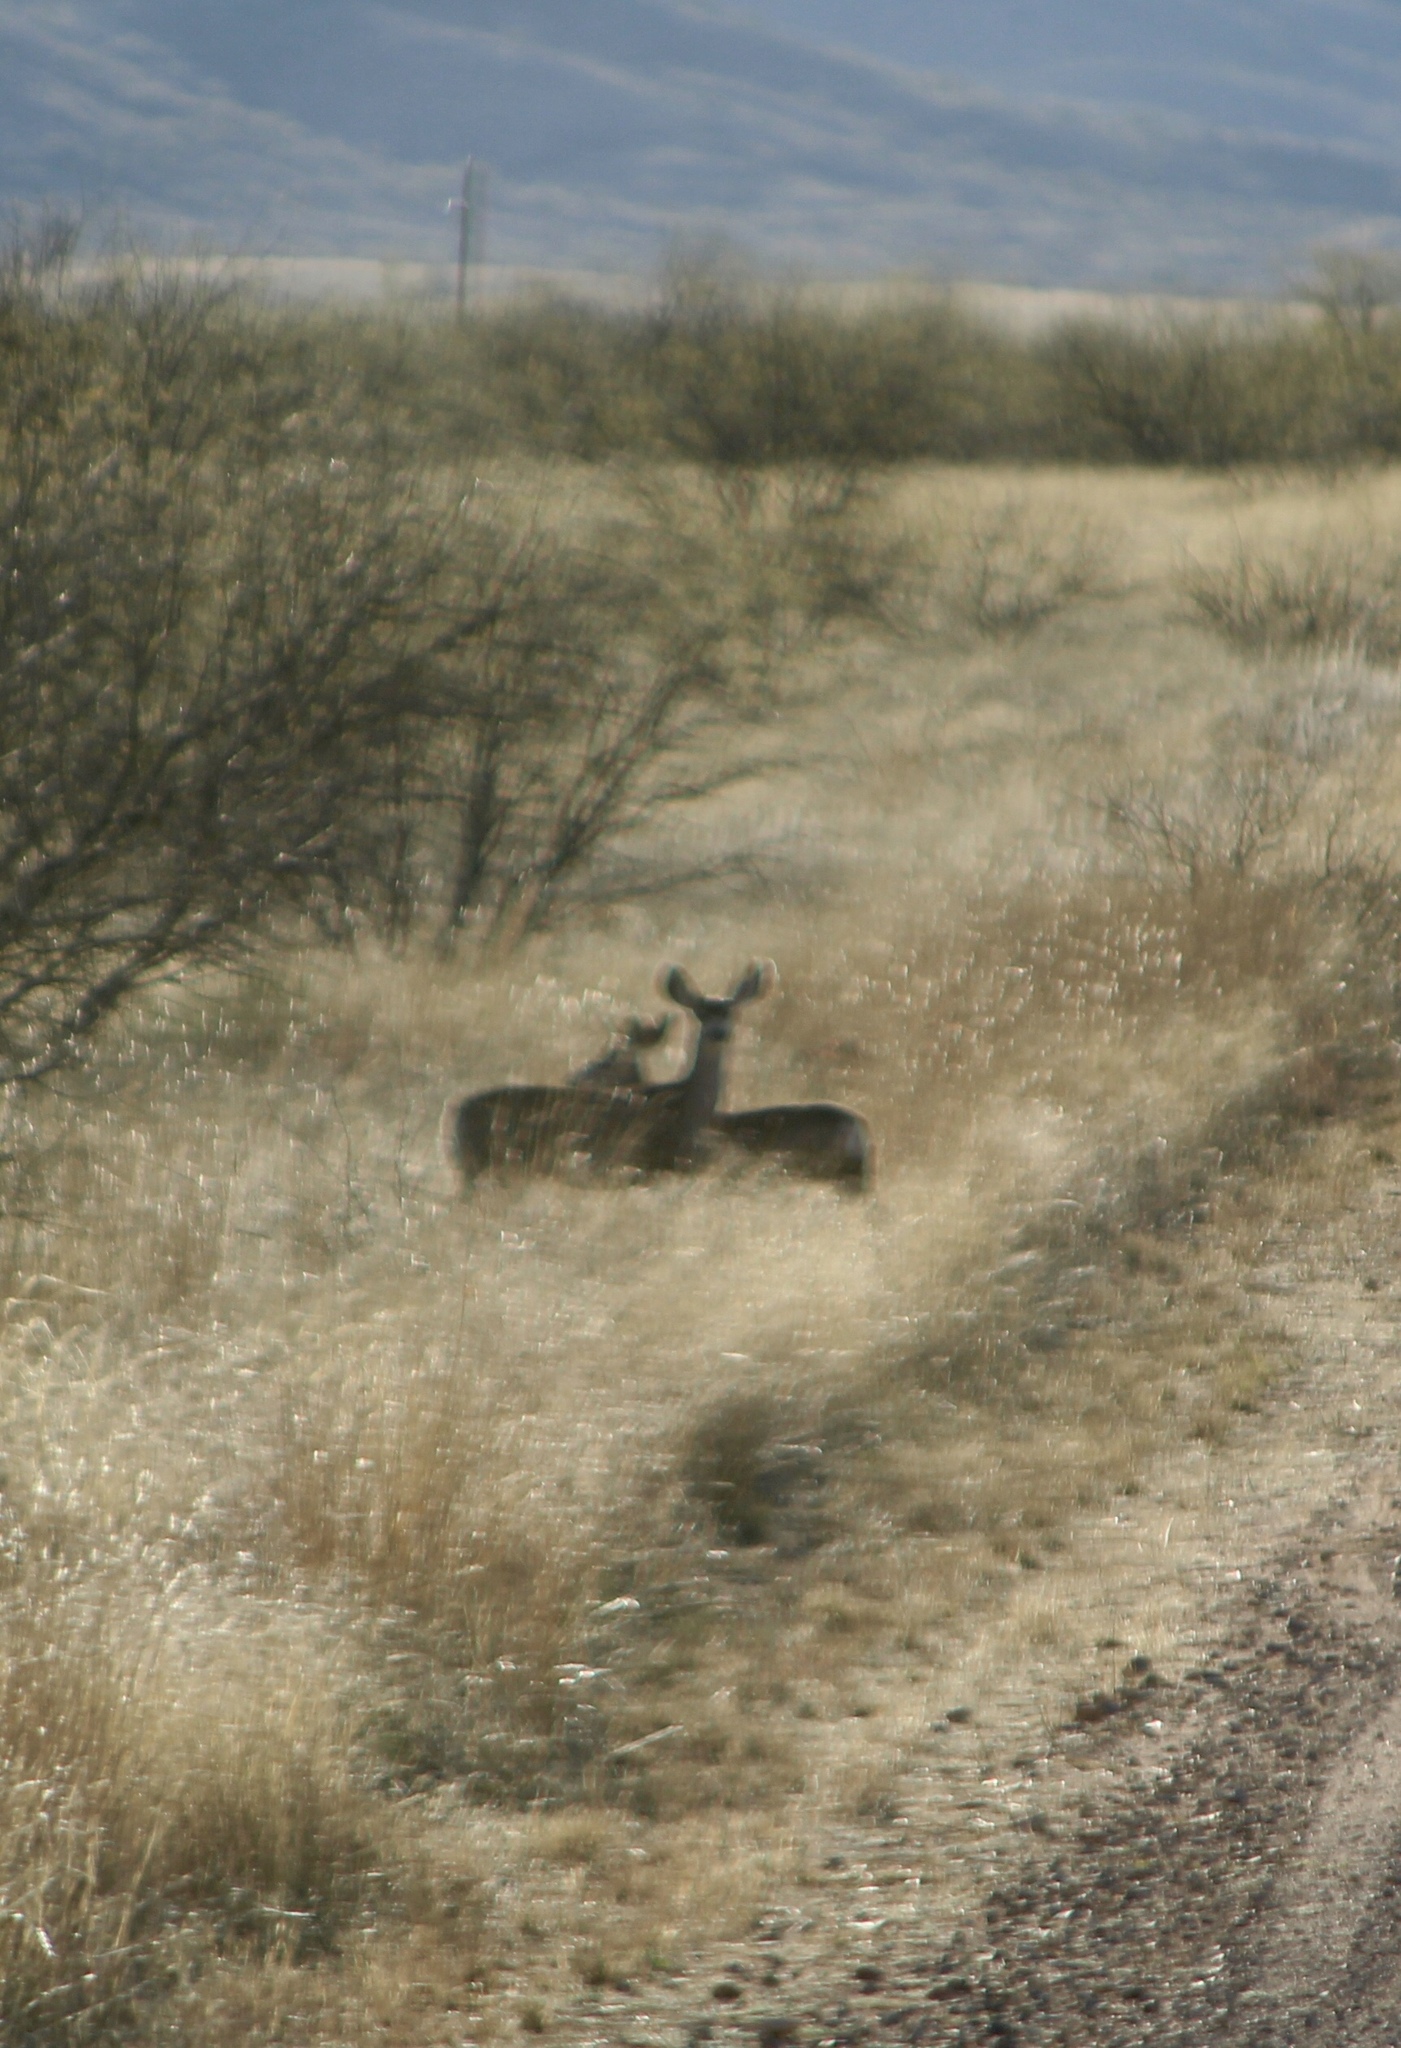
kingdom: Animalia
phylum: Chordata
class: Mammalia
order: Artiodactyla
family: Cervidae
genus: Odocoileus
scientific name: Odocoileus hemionus
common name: Mule deer
